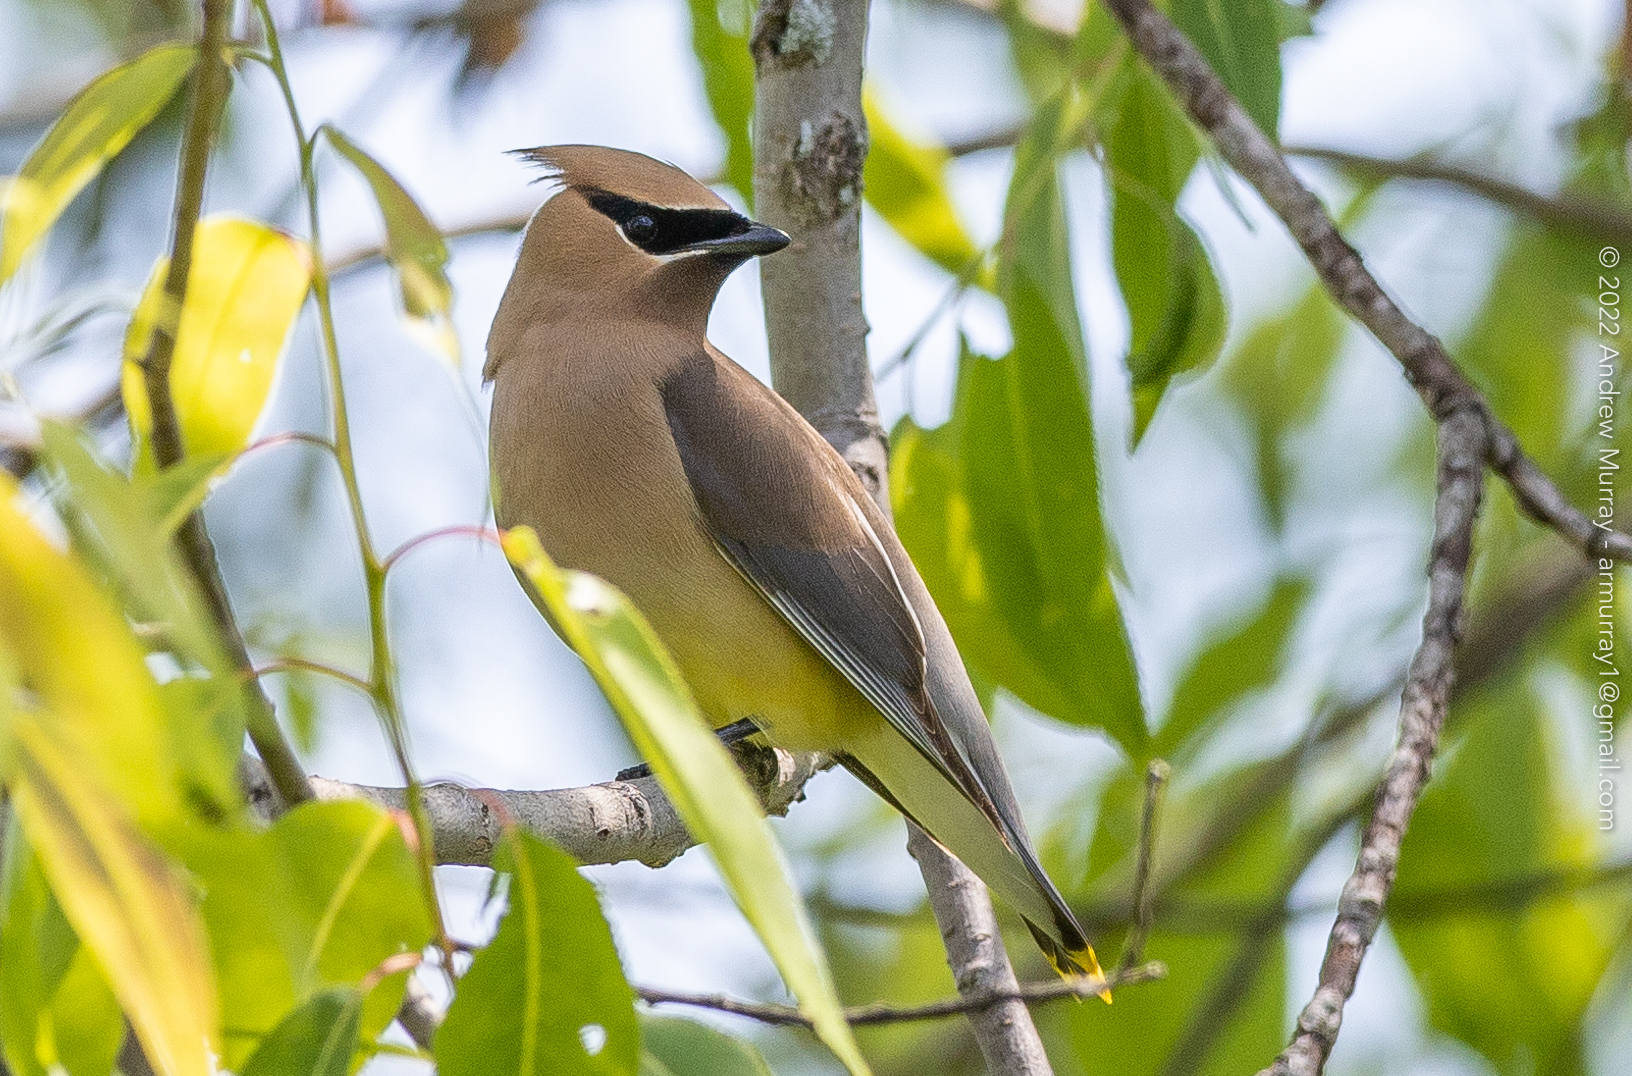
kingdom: Animalia
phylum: Chordata
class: Aves
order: Passeriformes
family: Bombycillidae
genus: Bombycilla
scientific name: Bombycilla cedrorum
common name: Cedar waxwing
